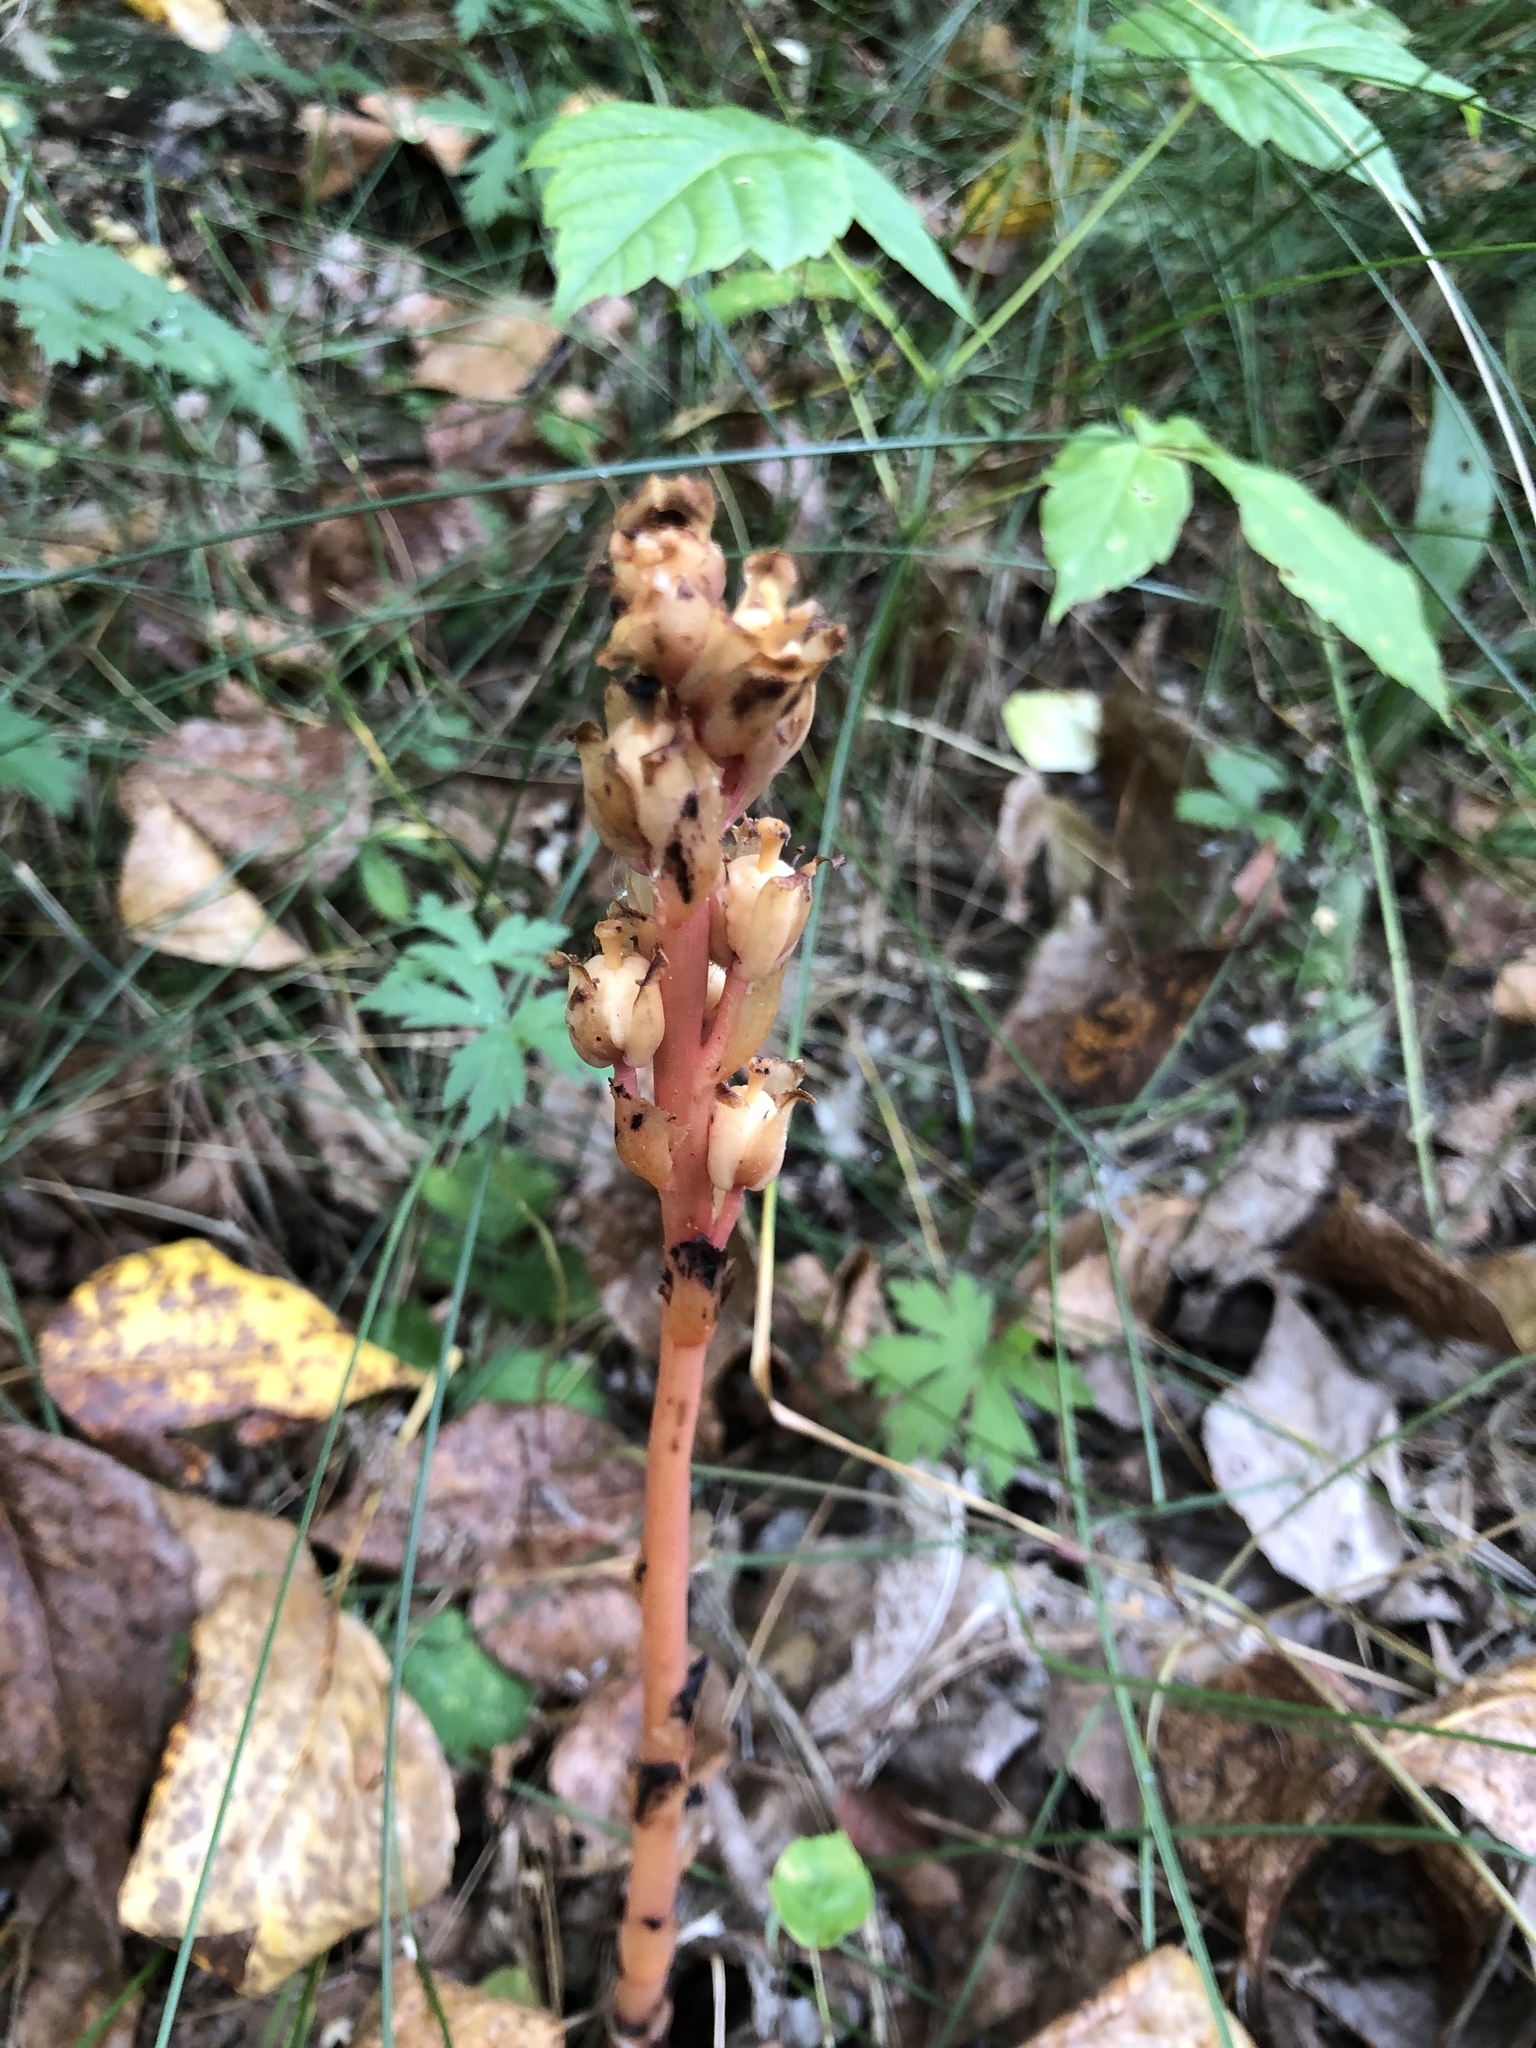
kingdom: Plantae
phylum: Tracheophyta
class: Magnoliopsida
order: Ericales
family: Ericaceae
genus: Hypopitys
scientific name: Hypopitys monotropa
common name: Yellow bird's-nest
